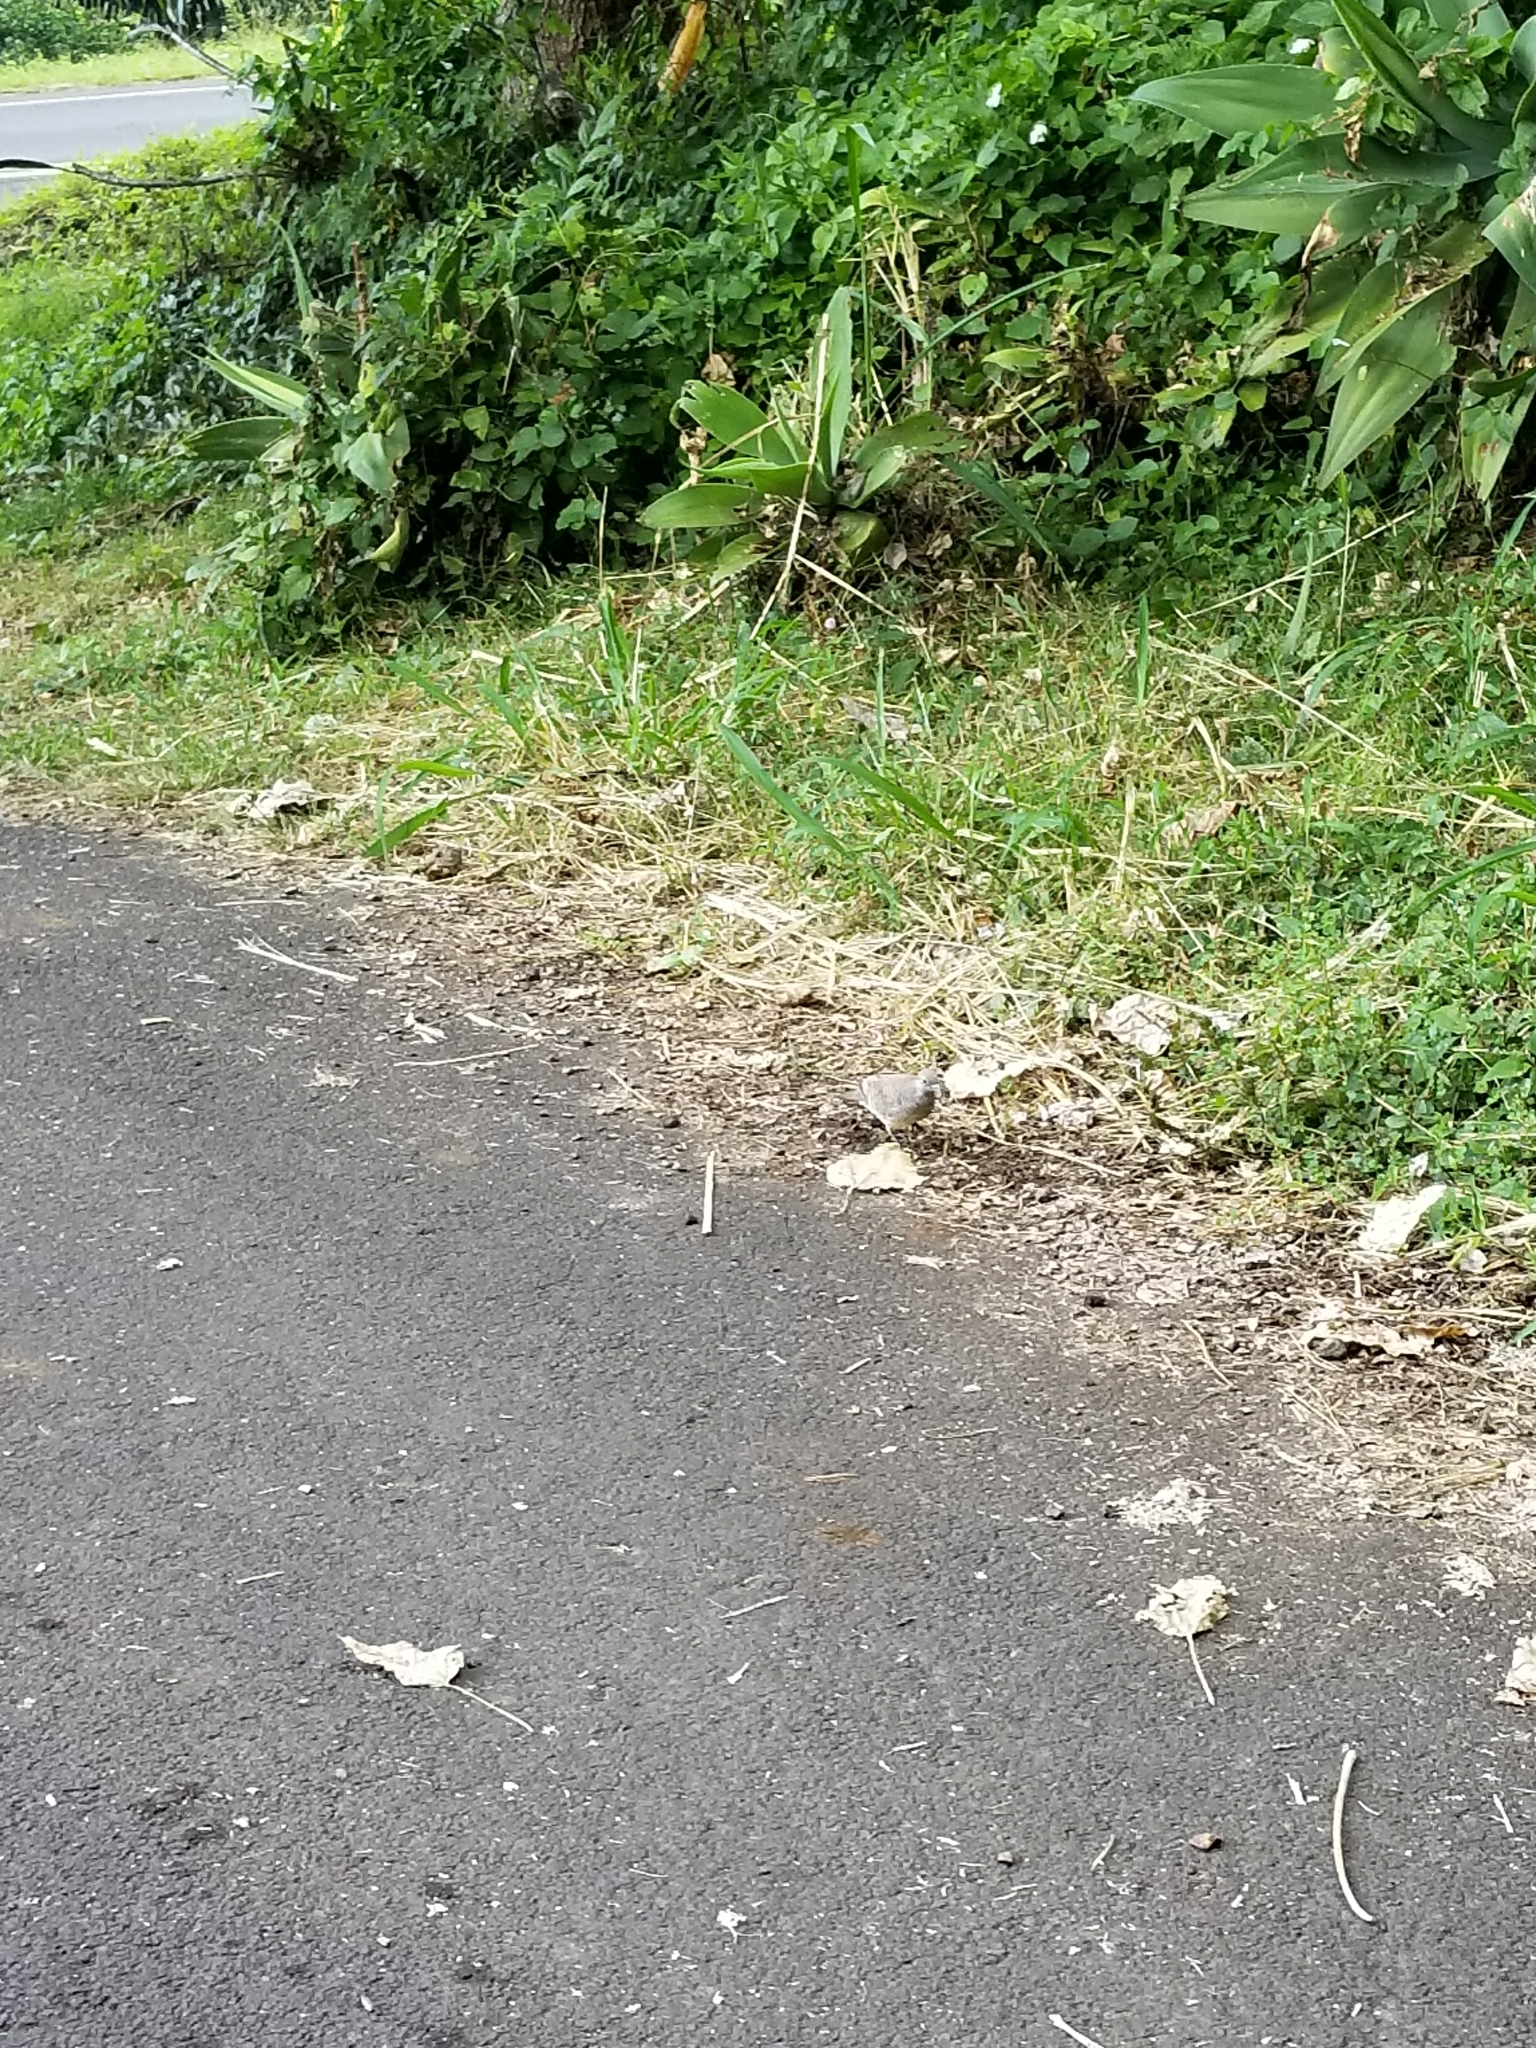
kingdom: Animalia
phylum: Chordata
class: Aves
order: Columbiformes
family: Columbidae
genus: Geopelia
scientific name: Geopelia striata
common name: Zebra dove
